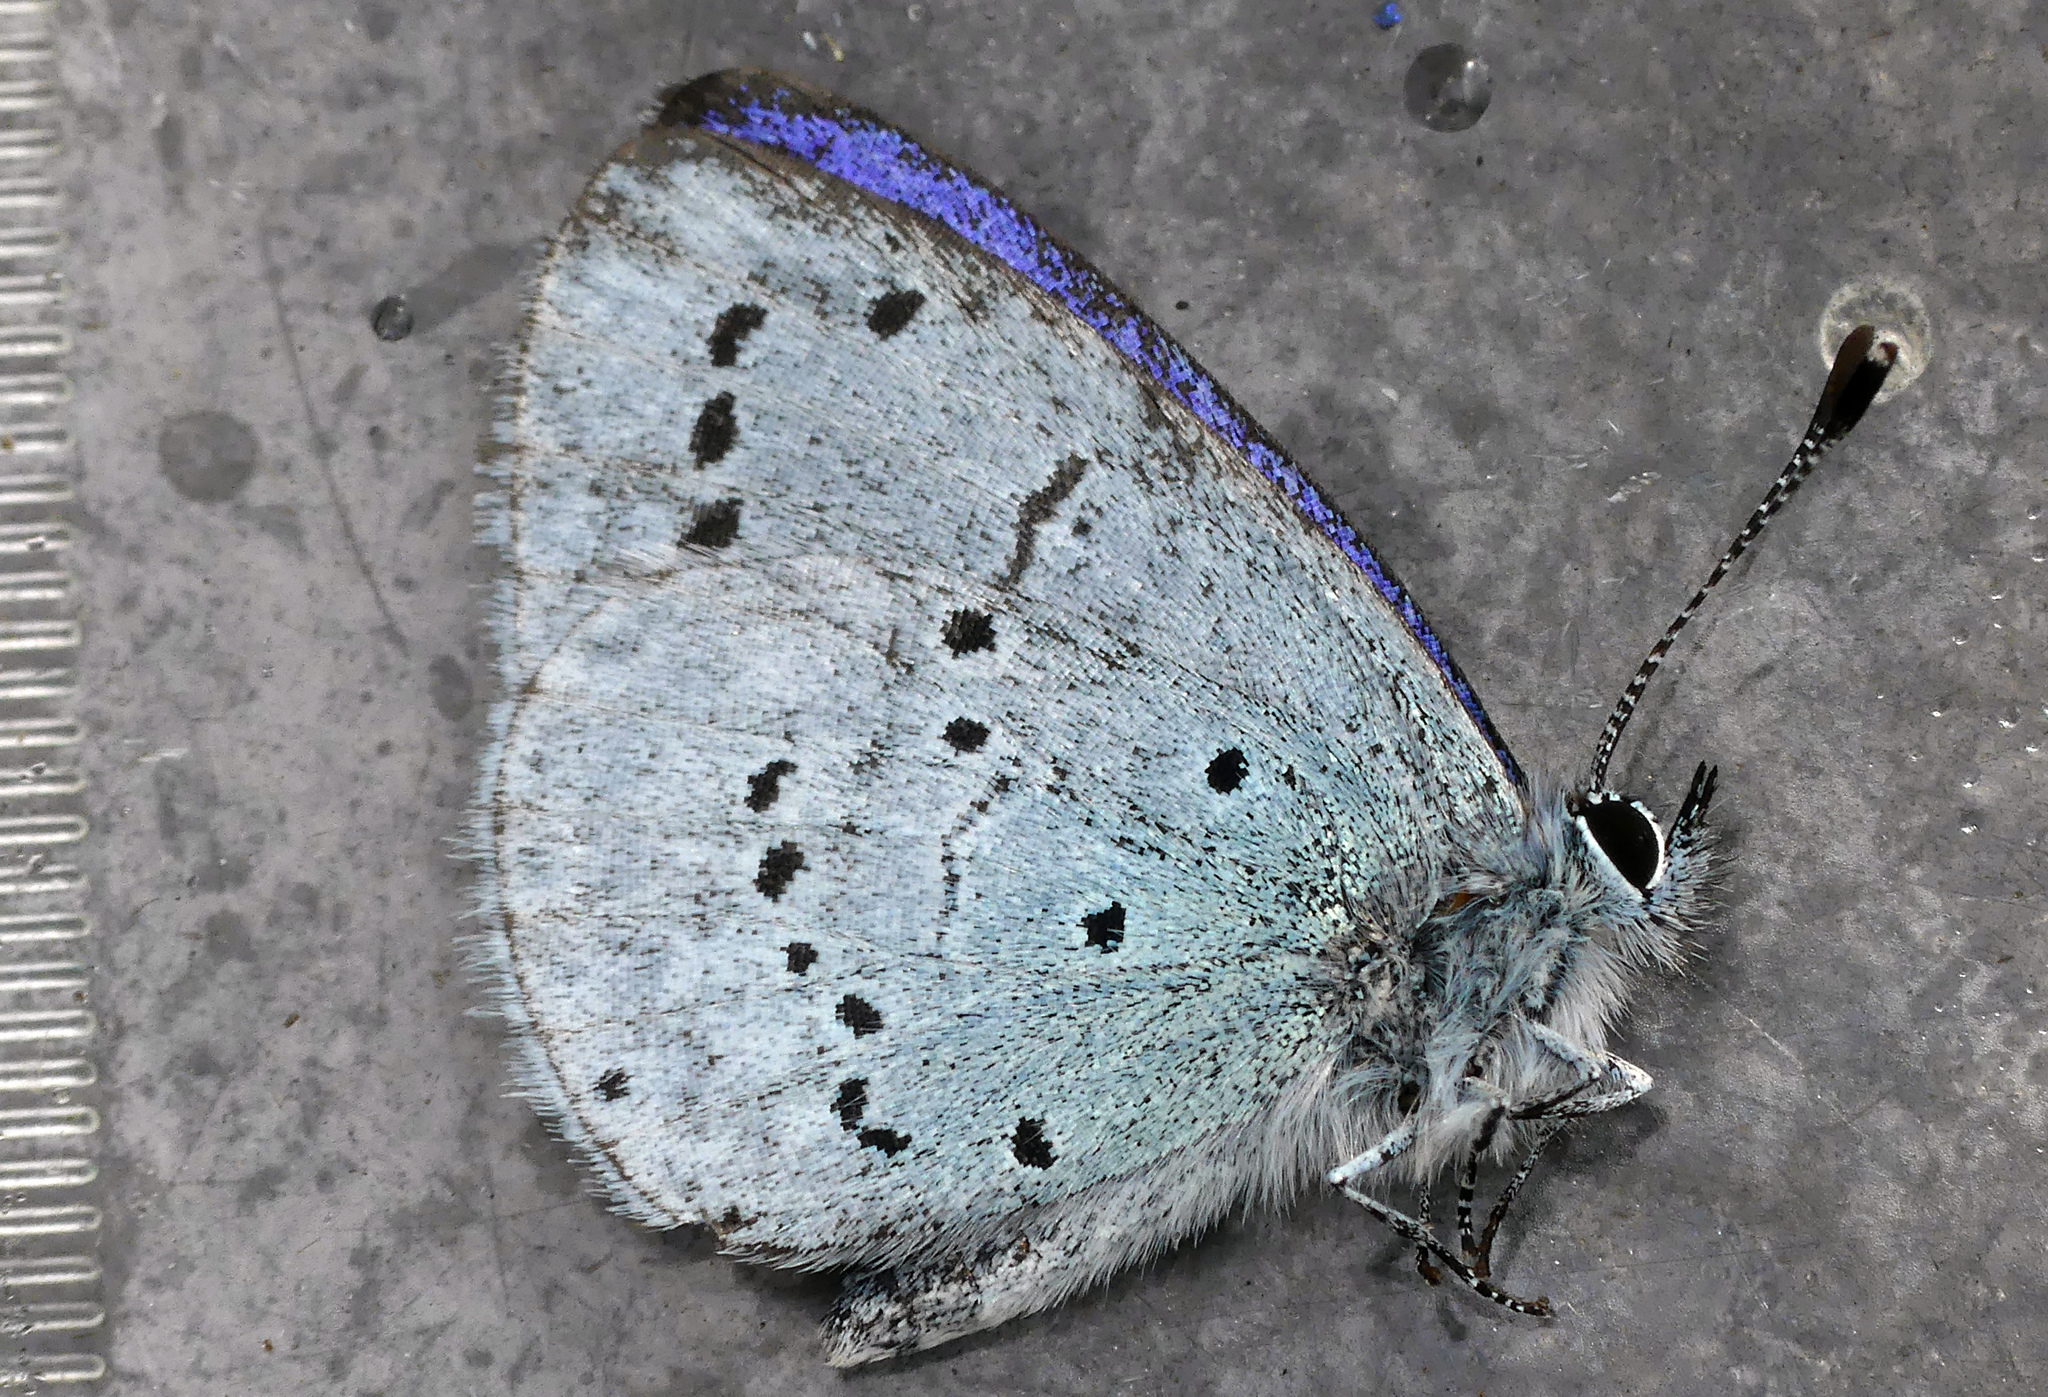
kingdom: Animalia
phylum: Arthropoda
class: Insecta
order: Lepidoptera
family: Lycaenidae
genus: Celastrina
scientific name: Celastrina argiolus
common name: Holly blue
